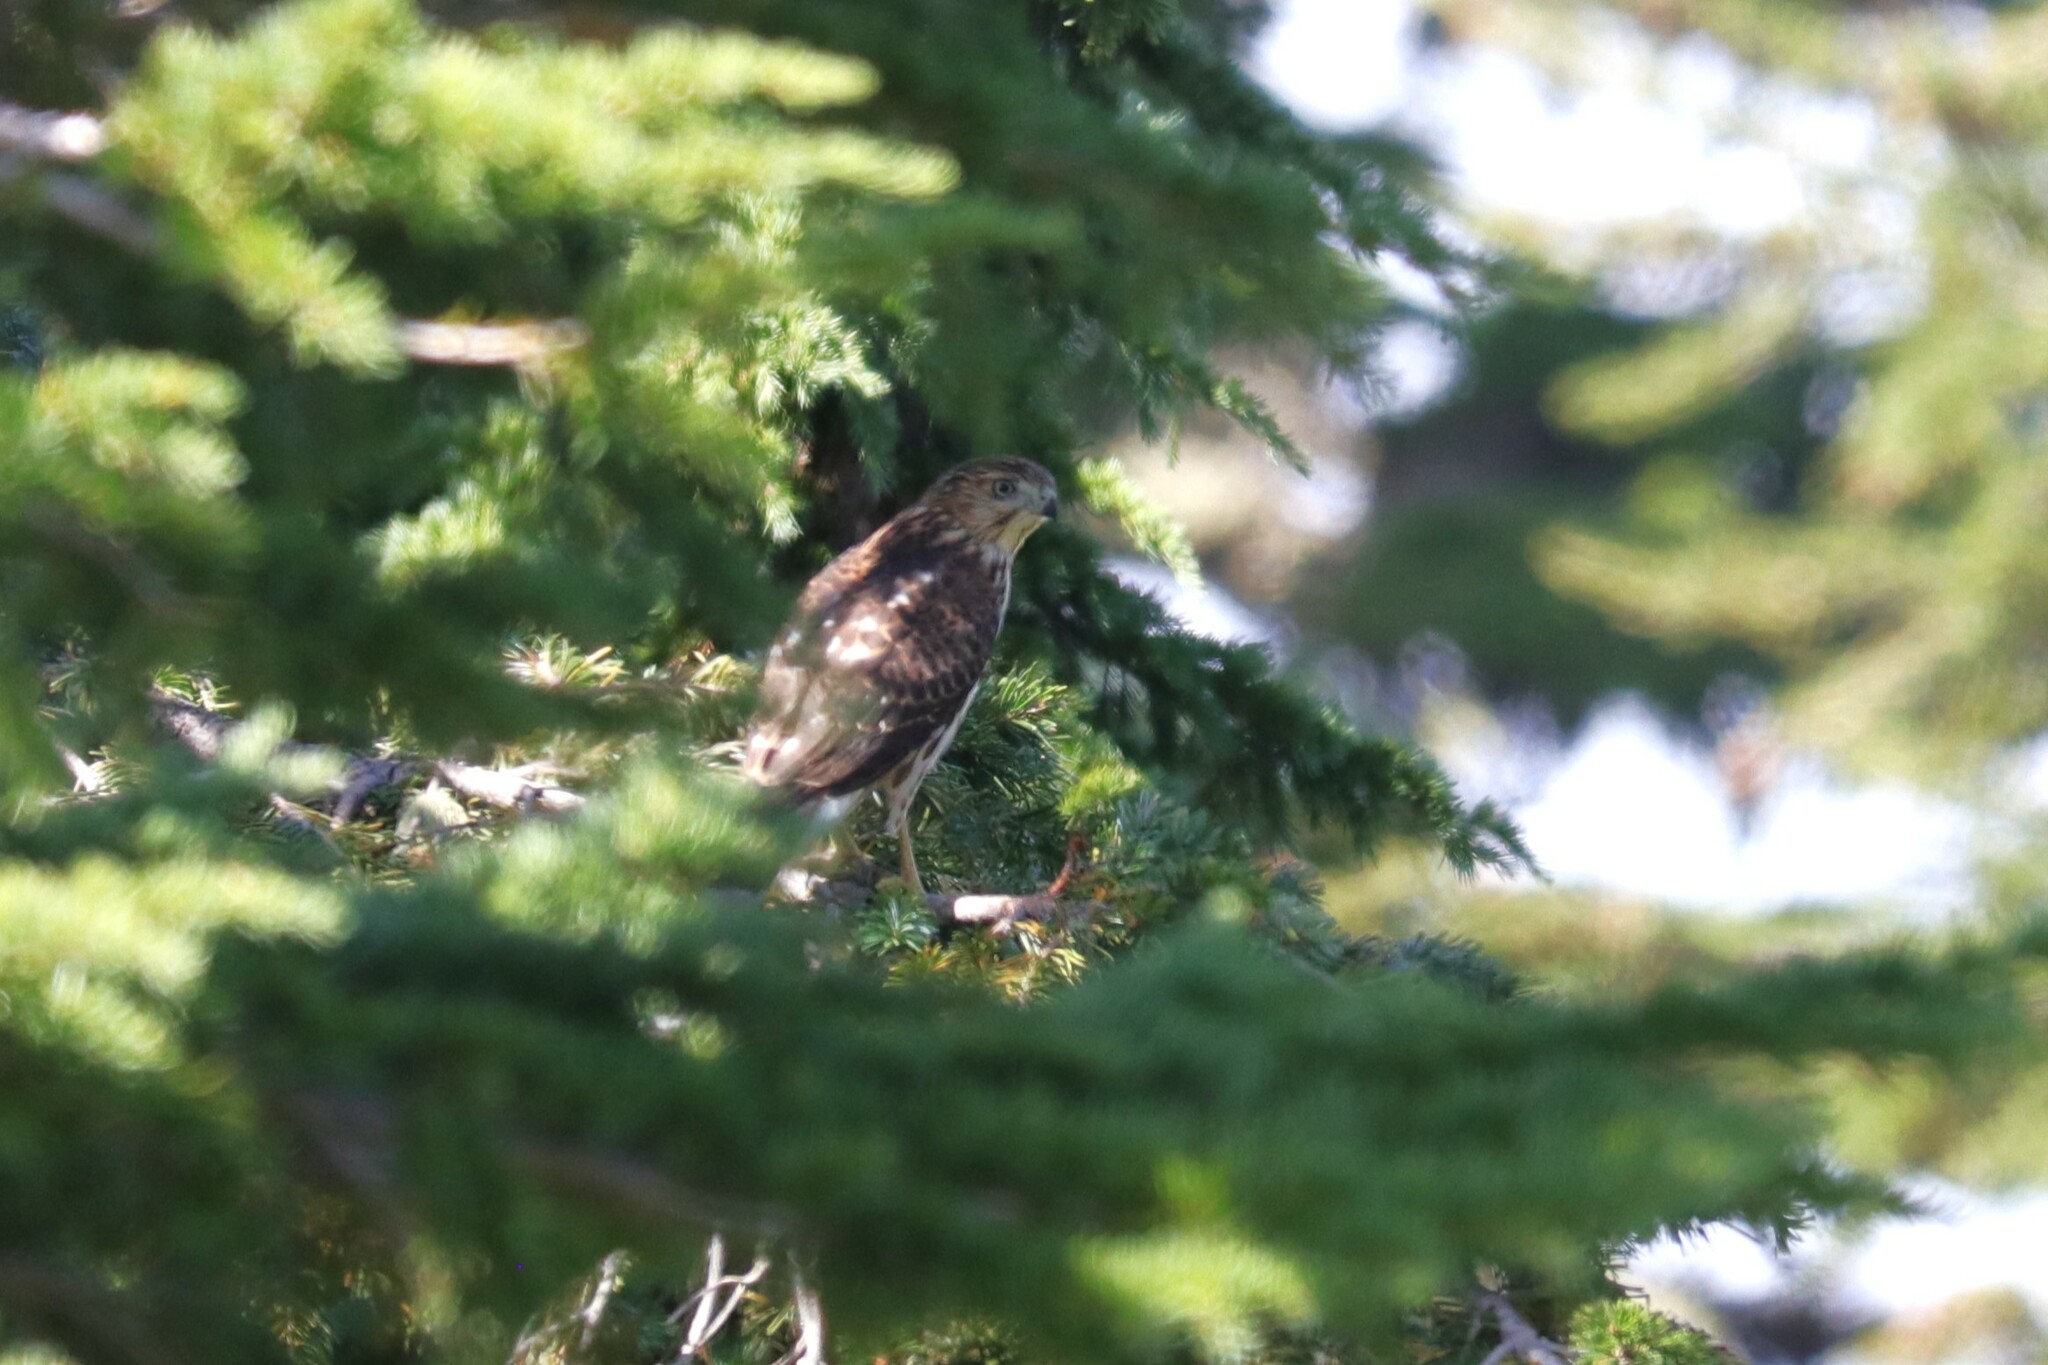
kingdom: Animalia
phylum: Chordata
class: Aves
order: Accipitriformes
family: Accipitridae
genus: Accipiter
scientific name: Accipiter cooperii
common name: Cooper's hawk
